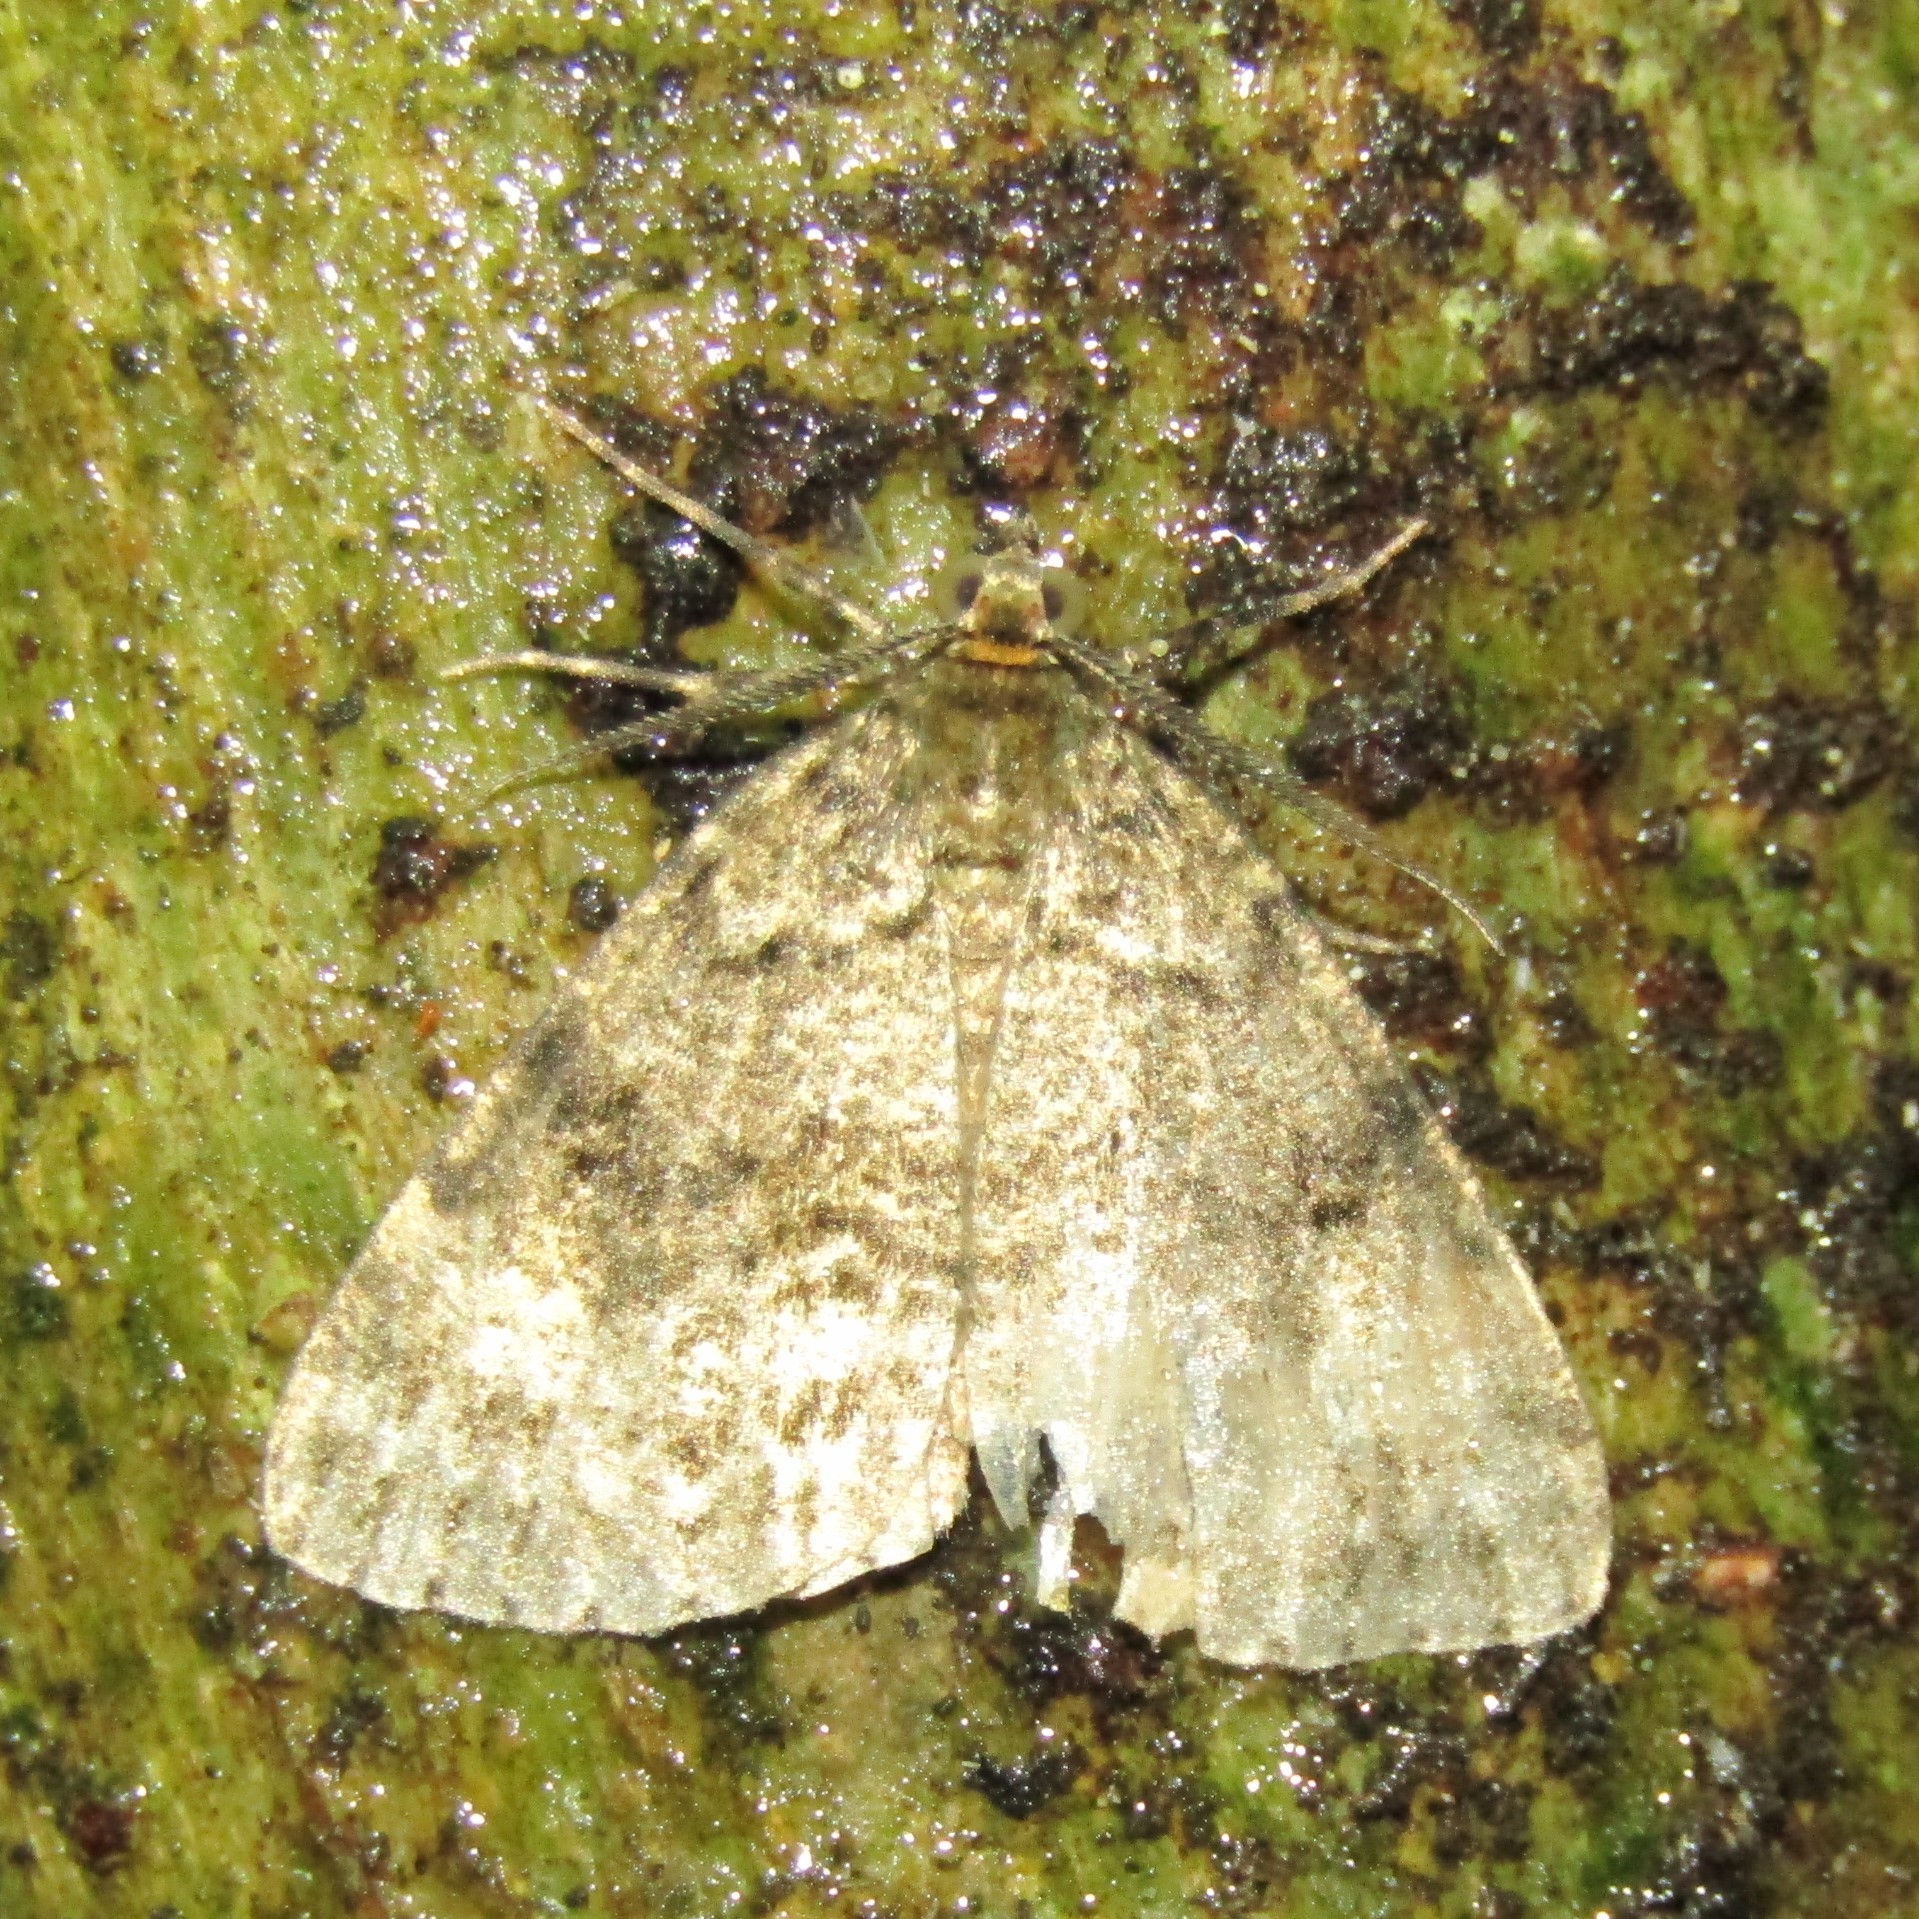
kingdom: Animalia
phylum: Arthropoda
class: Insecta
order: Lepidoptera
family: Geometridae
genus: Pseudocoremia
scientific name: Pseudocoremia indistincta
